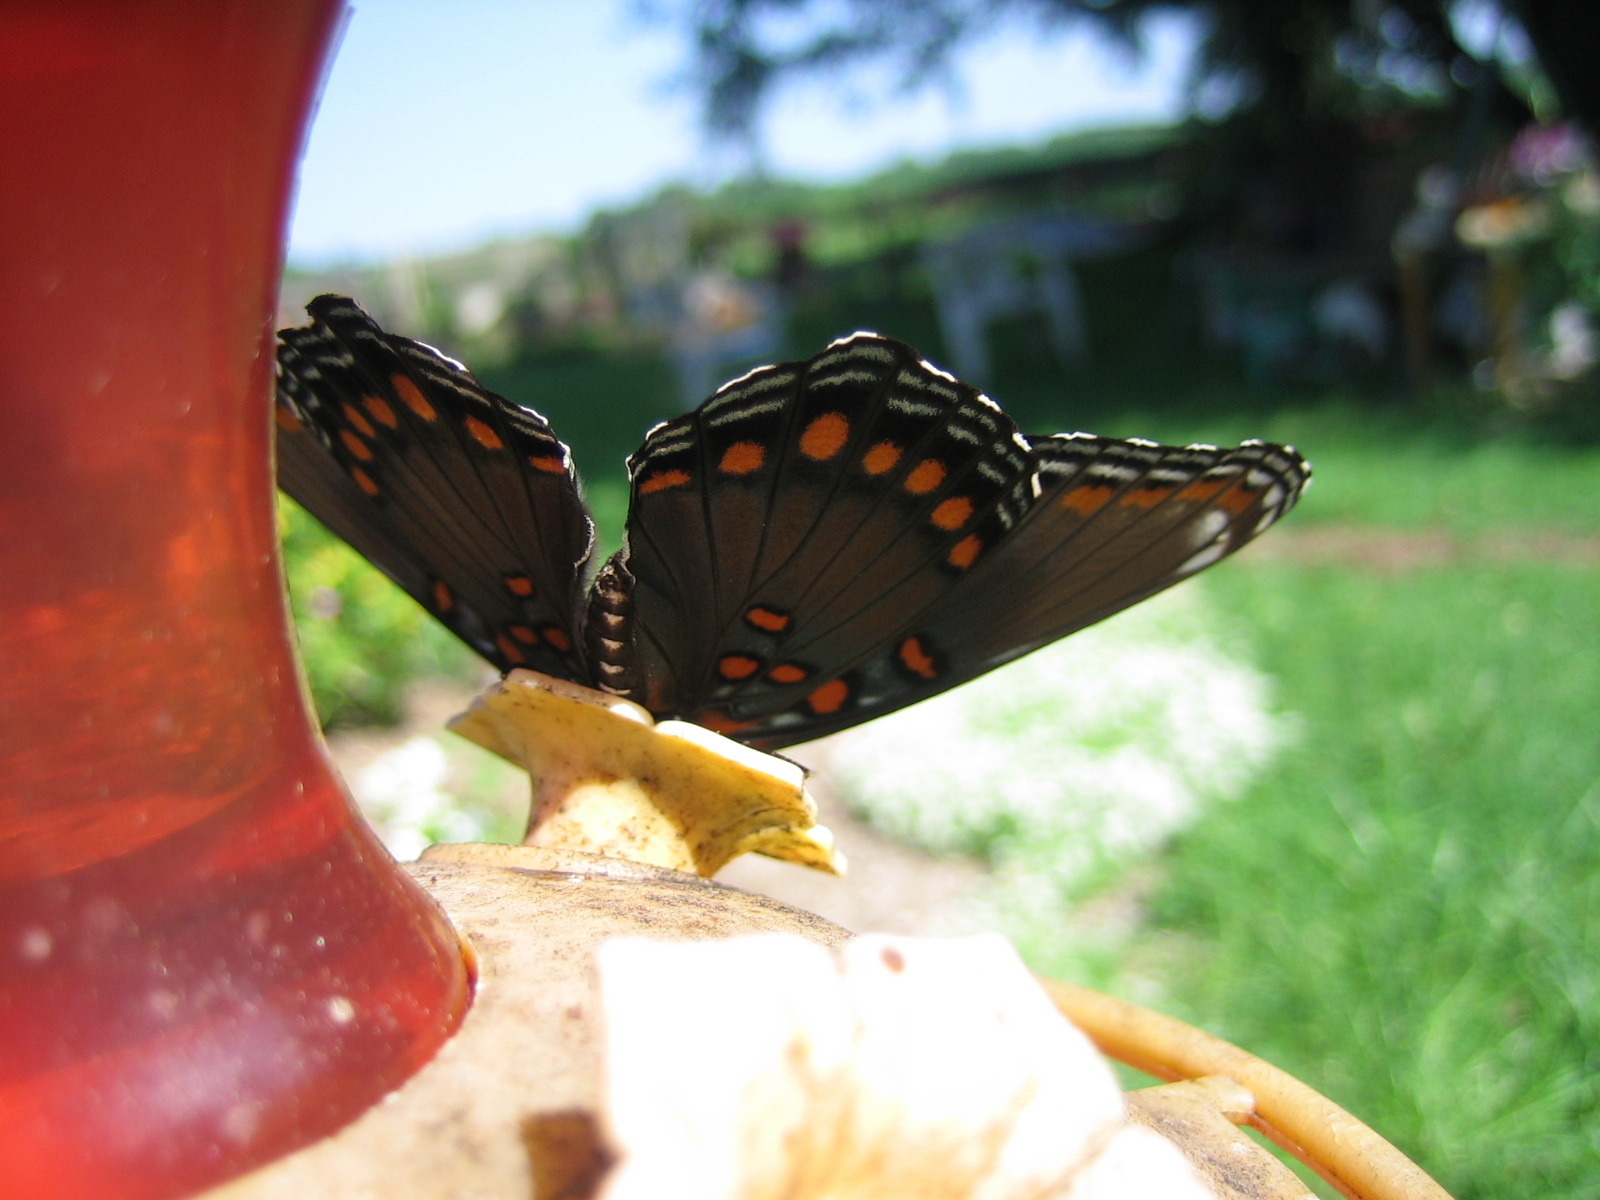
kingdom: Animalia
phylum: Arthropoda
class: Insecta
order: Lepidoptera
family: Nymphalidae
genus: Limenitis
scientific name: Limenitis astyanax
